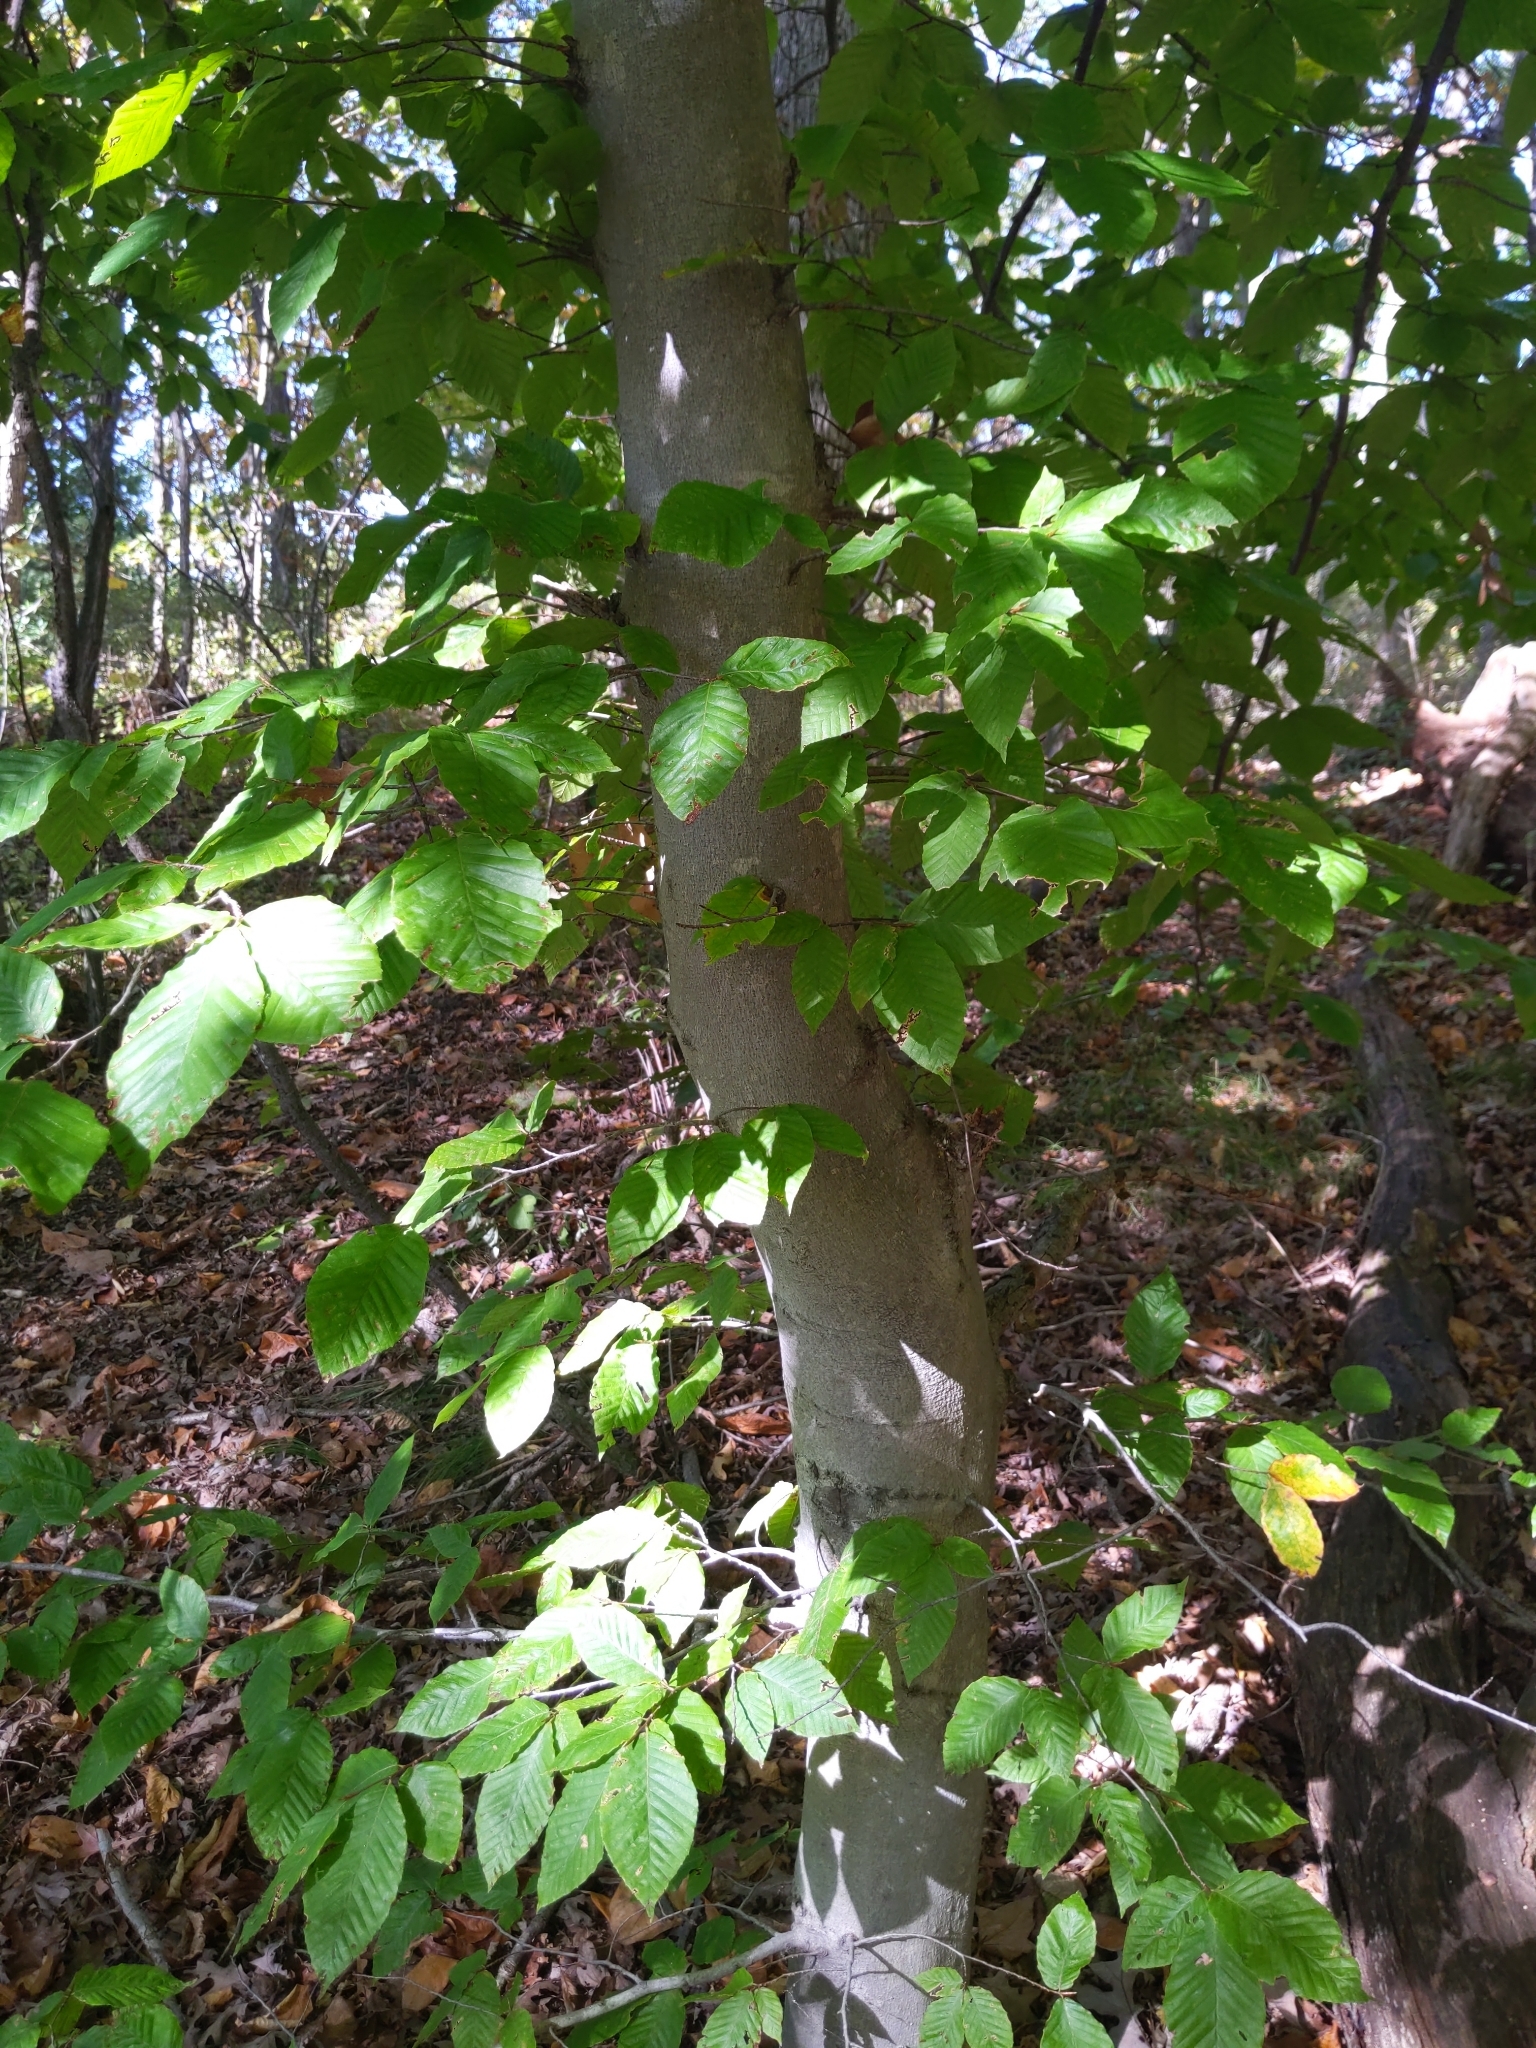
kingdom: Plantae
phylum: Tracheophyta
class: Magnoliopsida
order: Fagales
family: Fagaceae
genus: Fagus
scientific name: Fagus grandifolia
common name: American beech
